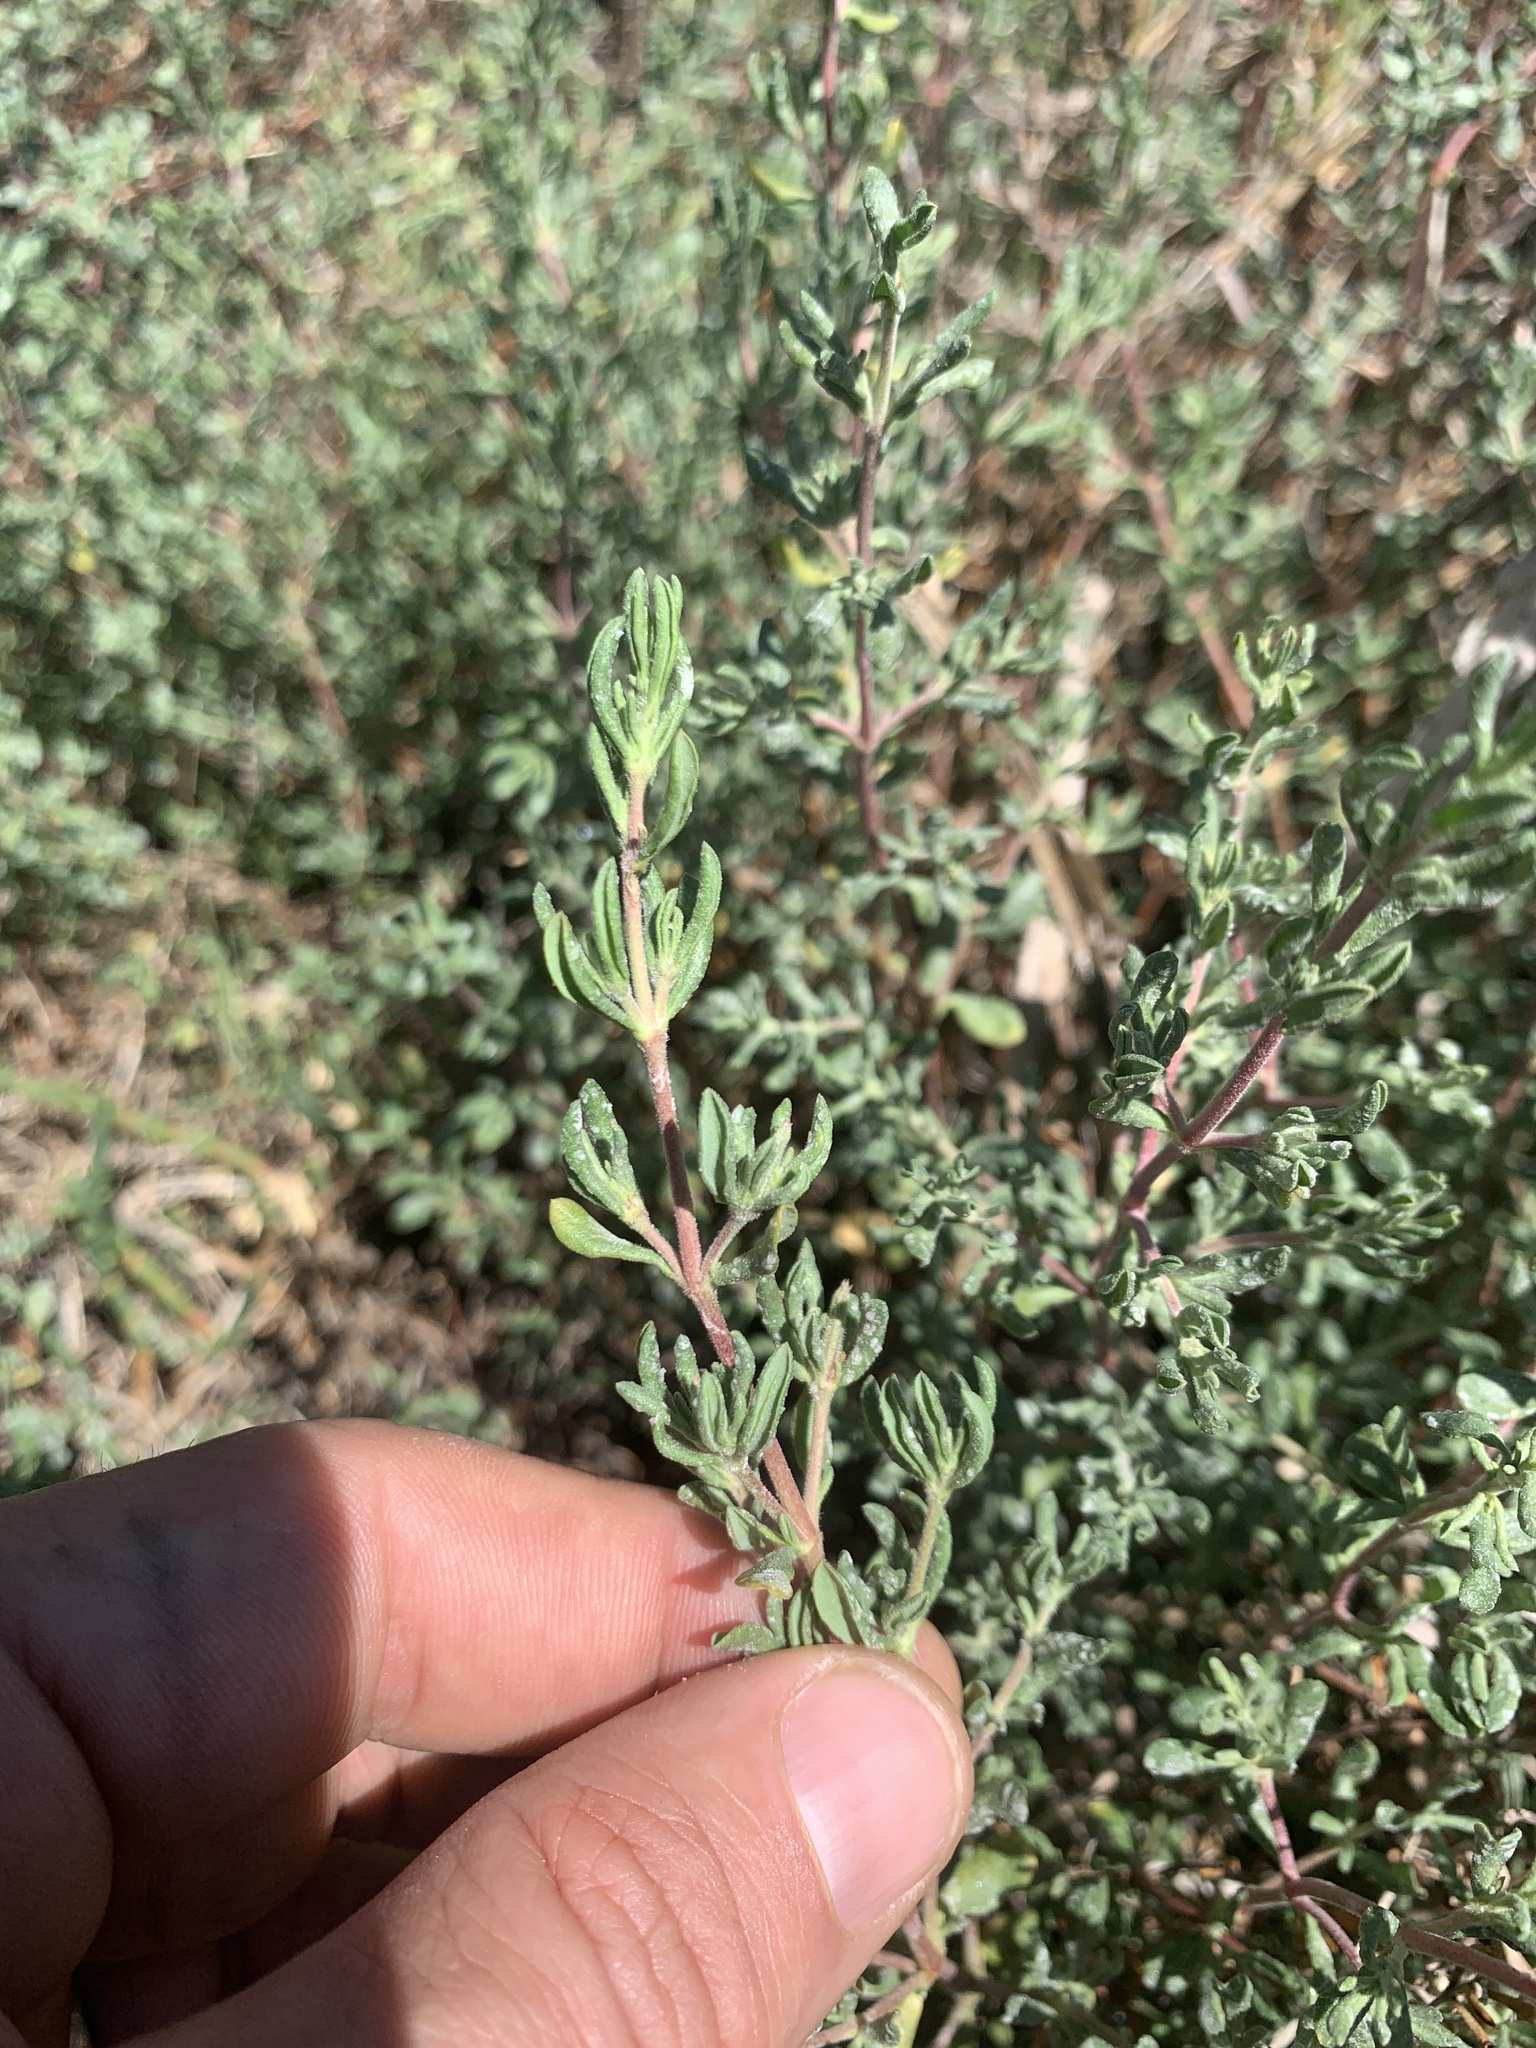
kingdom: Plantae
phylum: Tracheophyta
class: Magnoliopsida
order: Caryophyllales
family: Frankeniaceae
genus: Frankenia
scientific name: Frankenia salina
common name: Alkali seaheath
